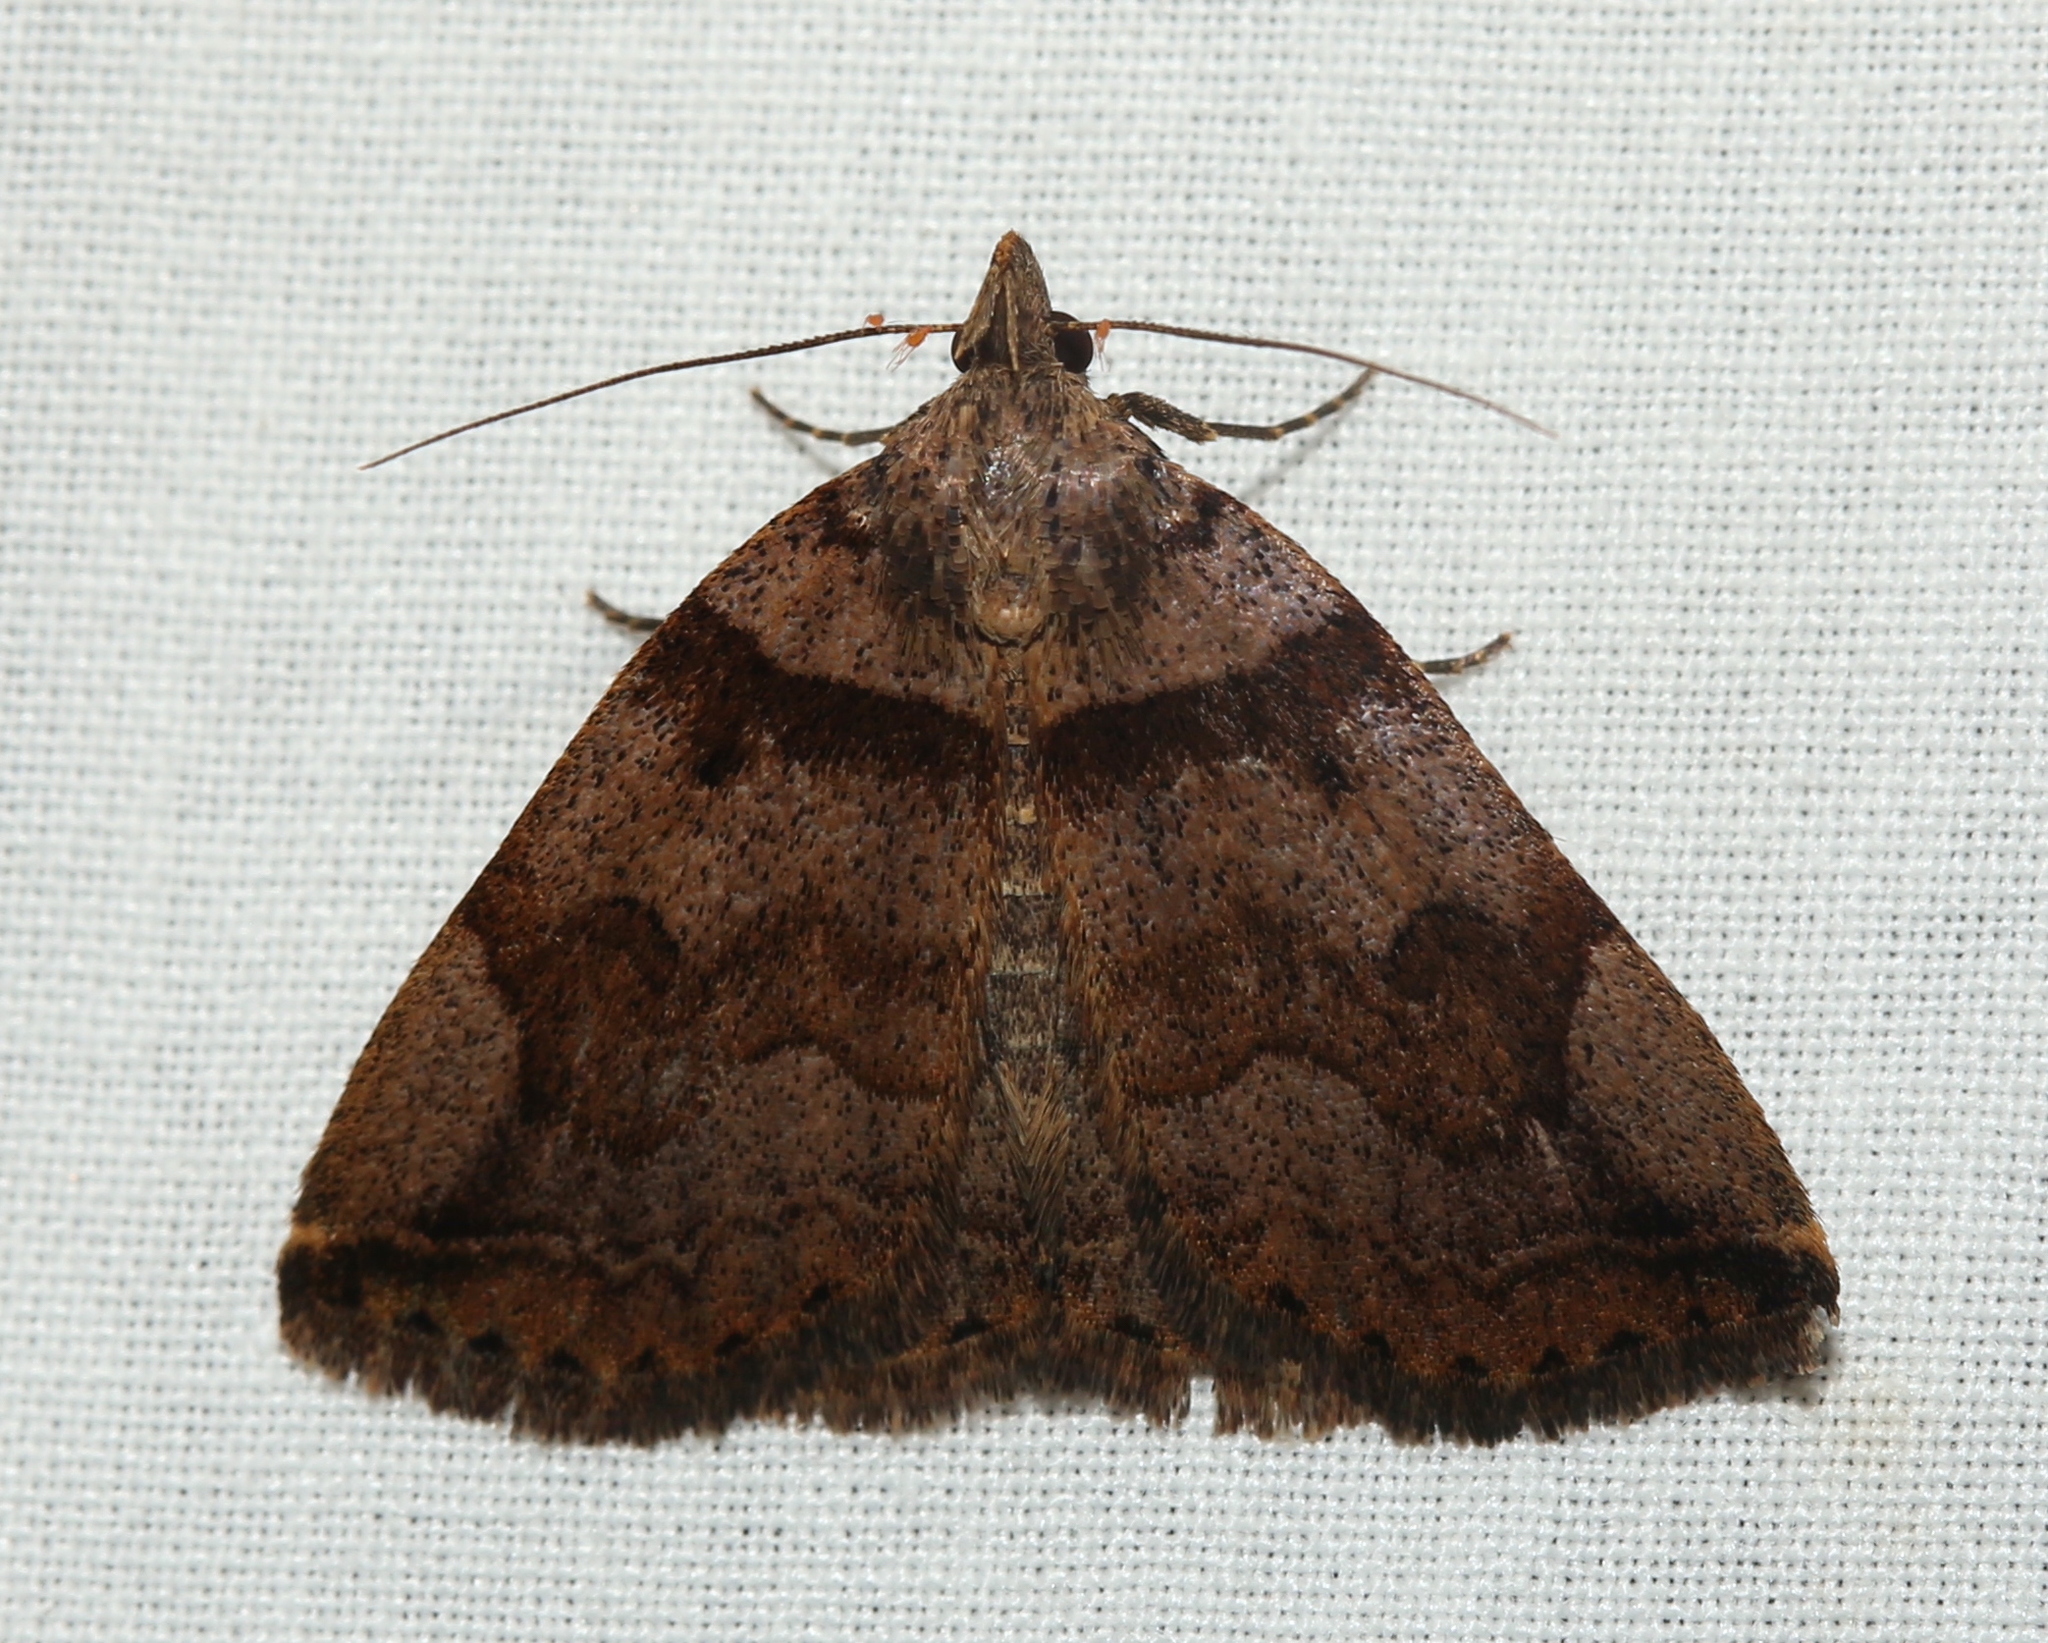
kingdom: Animalia
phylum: Arthropoda
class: Insecta
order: Lepidoptera
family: Erebidae
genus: Zanclognatha
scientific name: Zanclognatha laevigata
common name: Variable fan-foot
